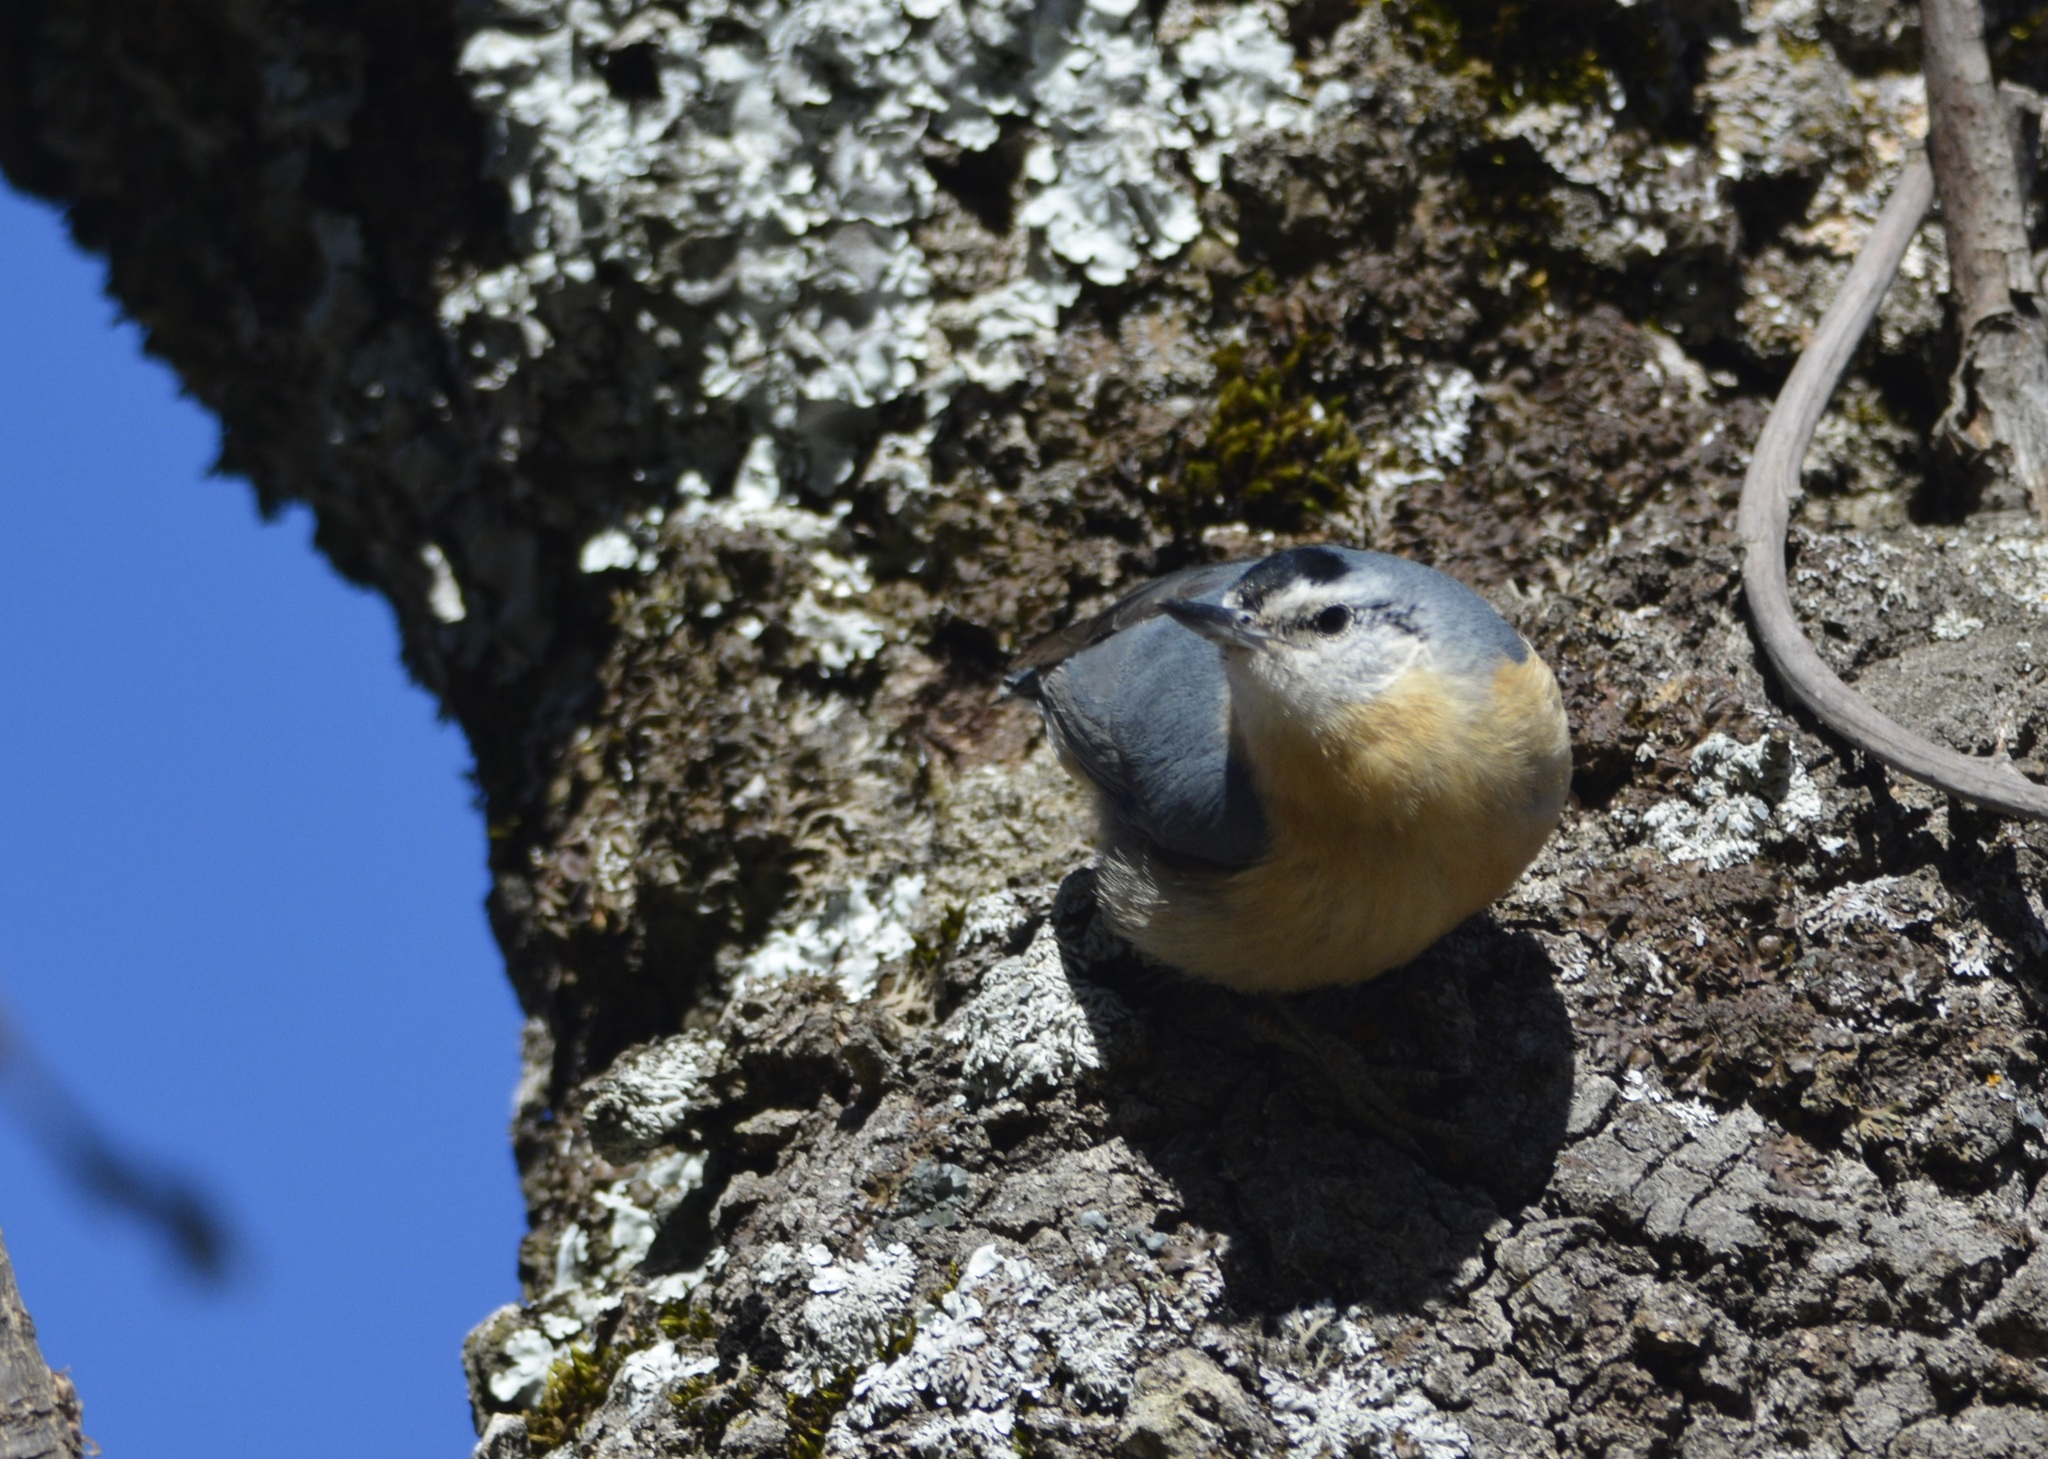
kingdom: Animalia
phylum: Chordata
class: Aves
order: Passeriformes
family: Sittidae
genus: Sitta
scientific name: Sitta ledanti
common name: Algerian nuthatch
